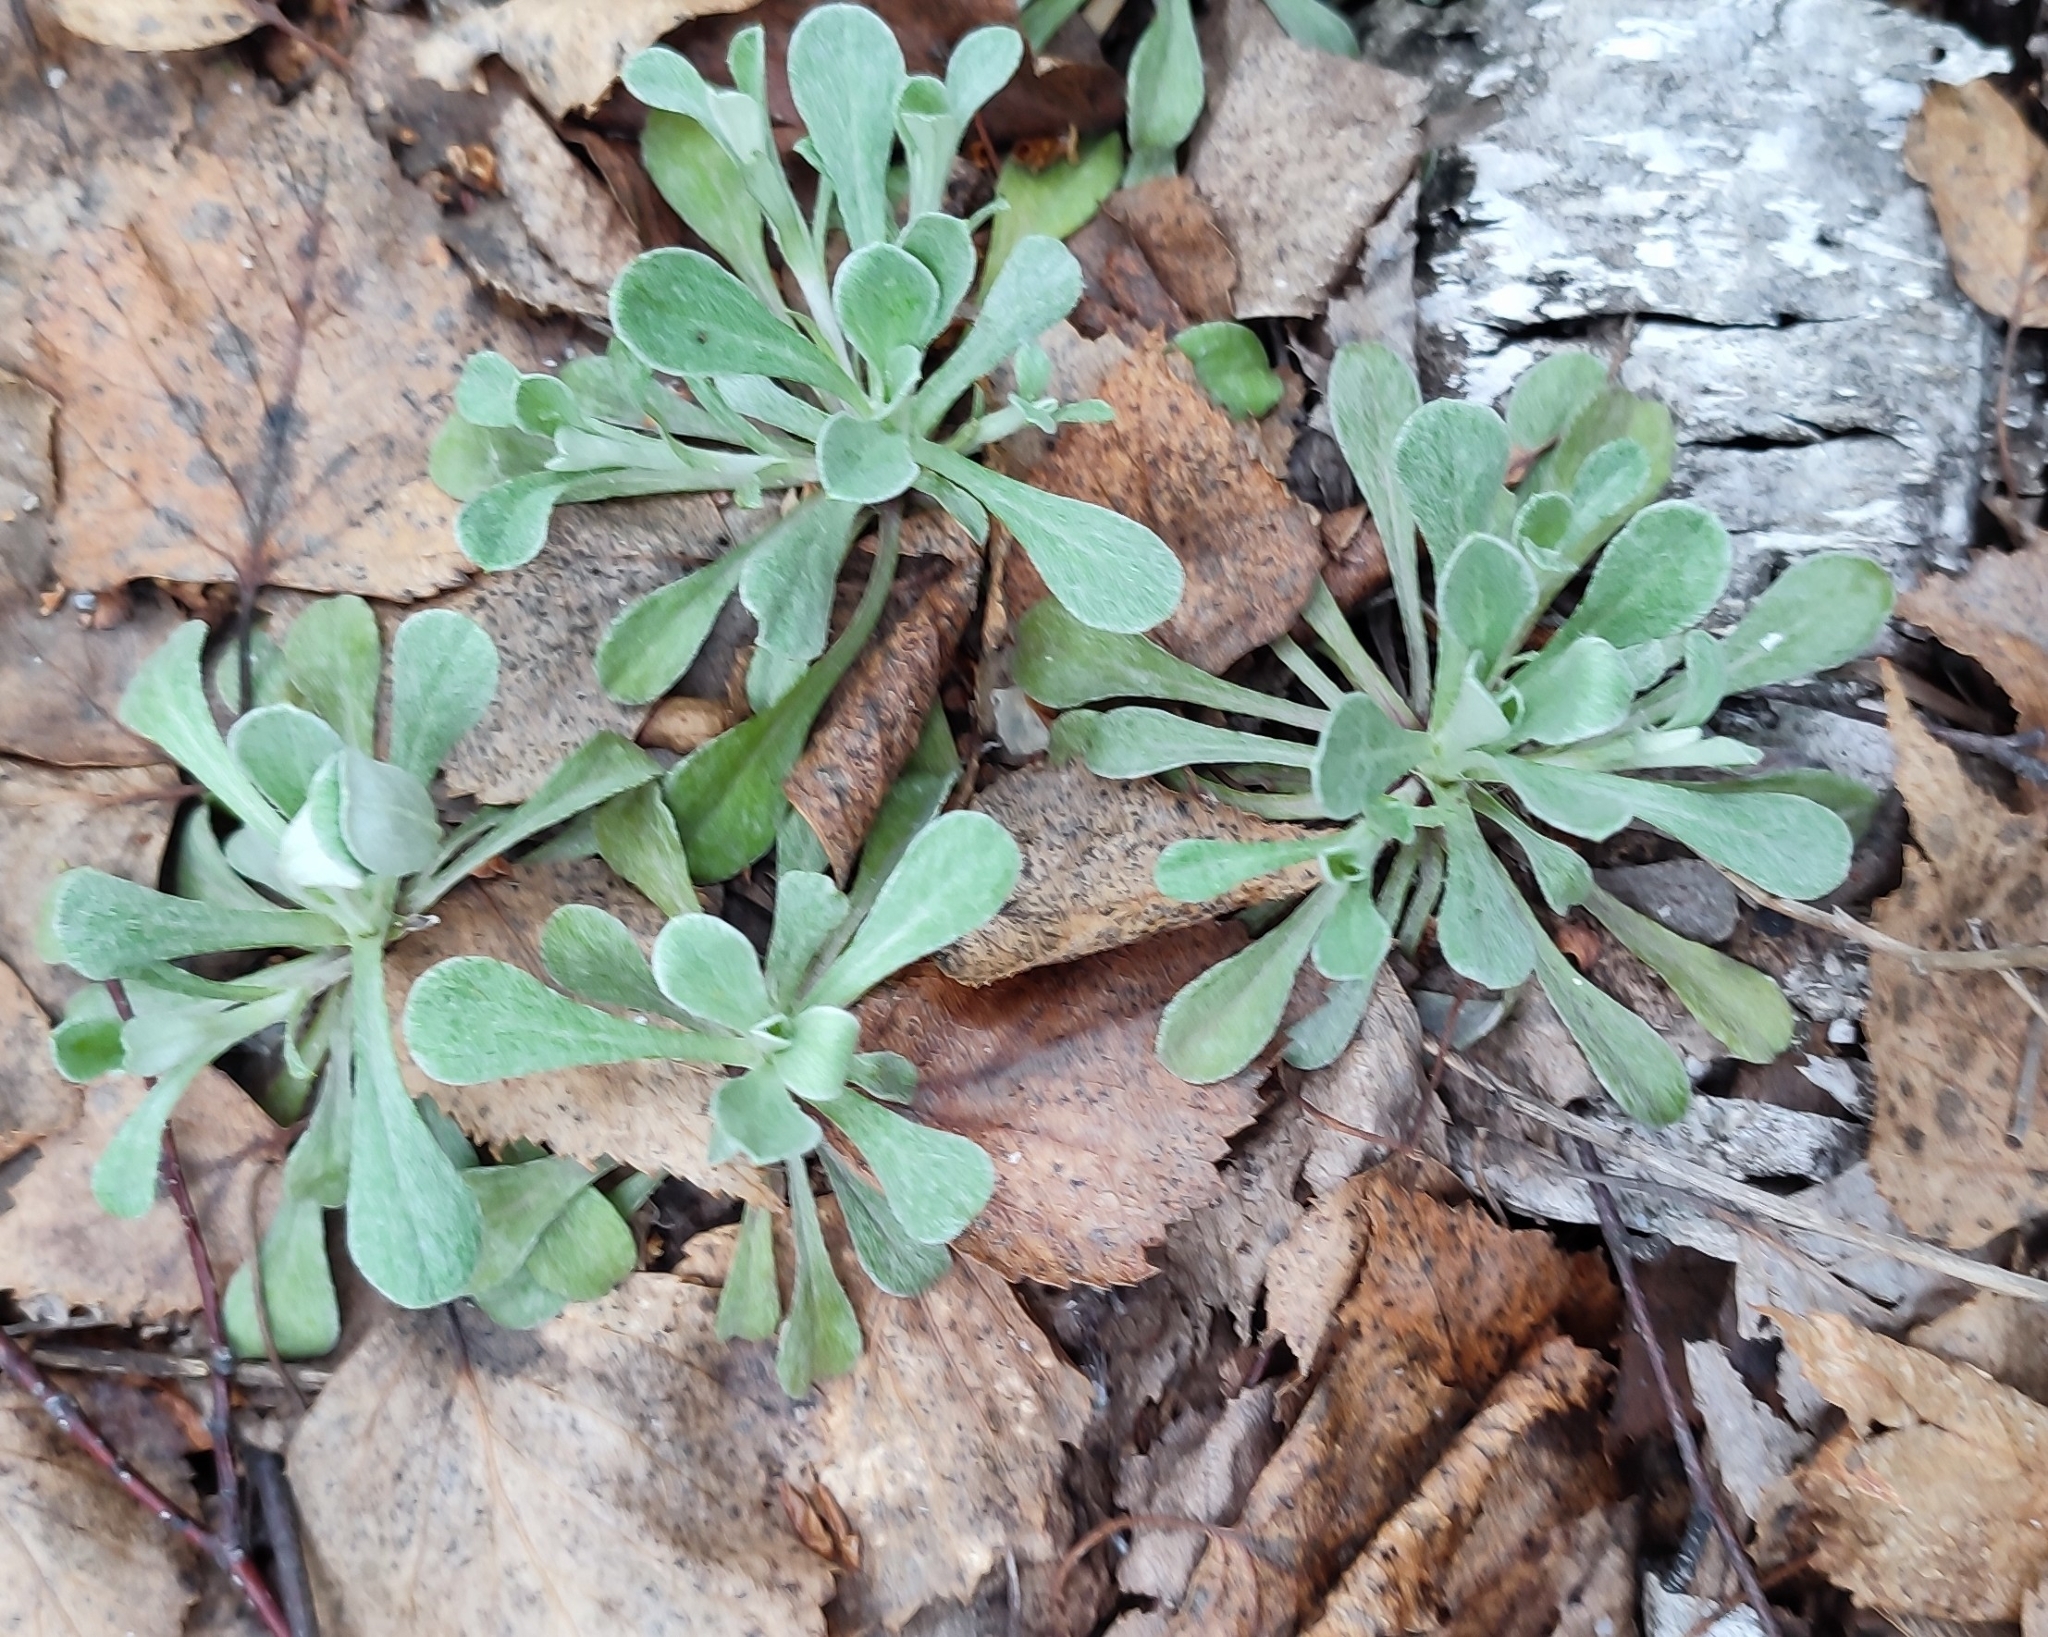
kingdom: Plantae
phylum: Tracheophyta
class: Magnoliopsida
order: Asterales
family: Asteraceae
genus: Antennaria
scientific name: Antennaria dioica
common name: Mountain everlasting
